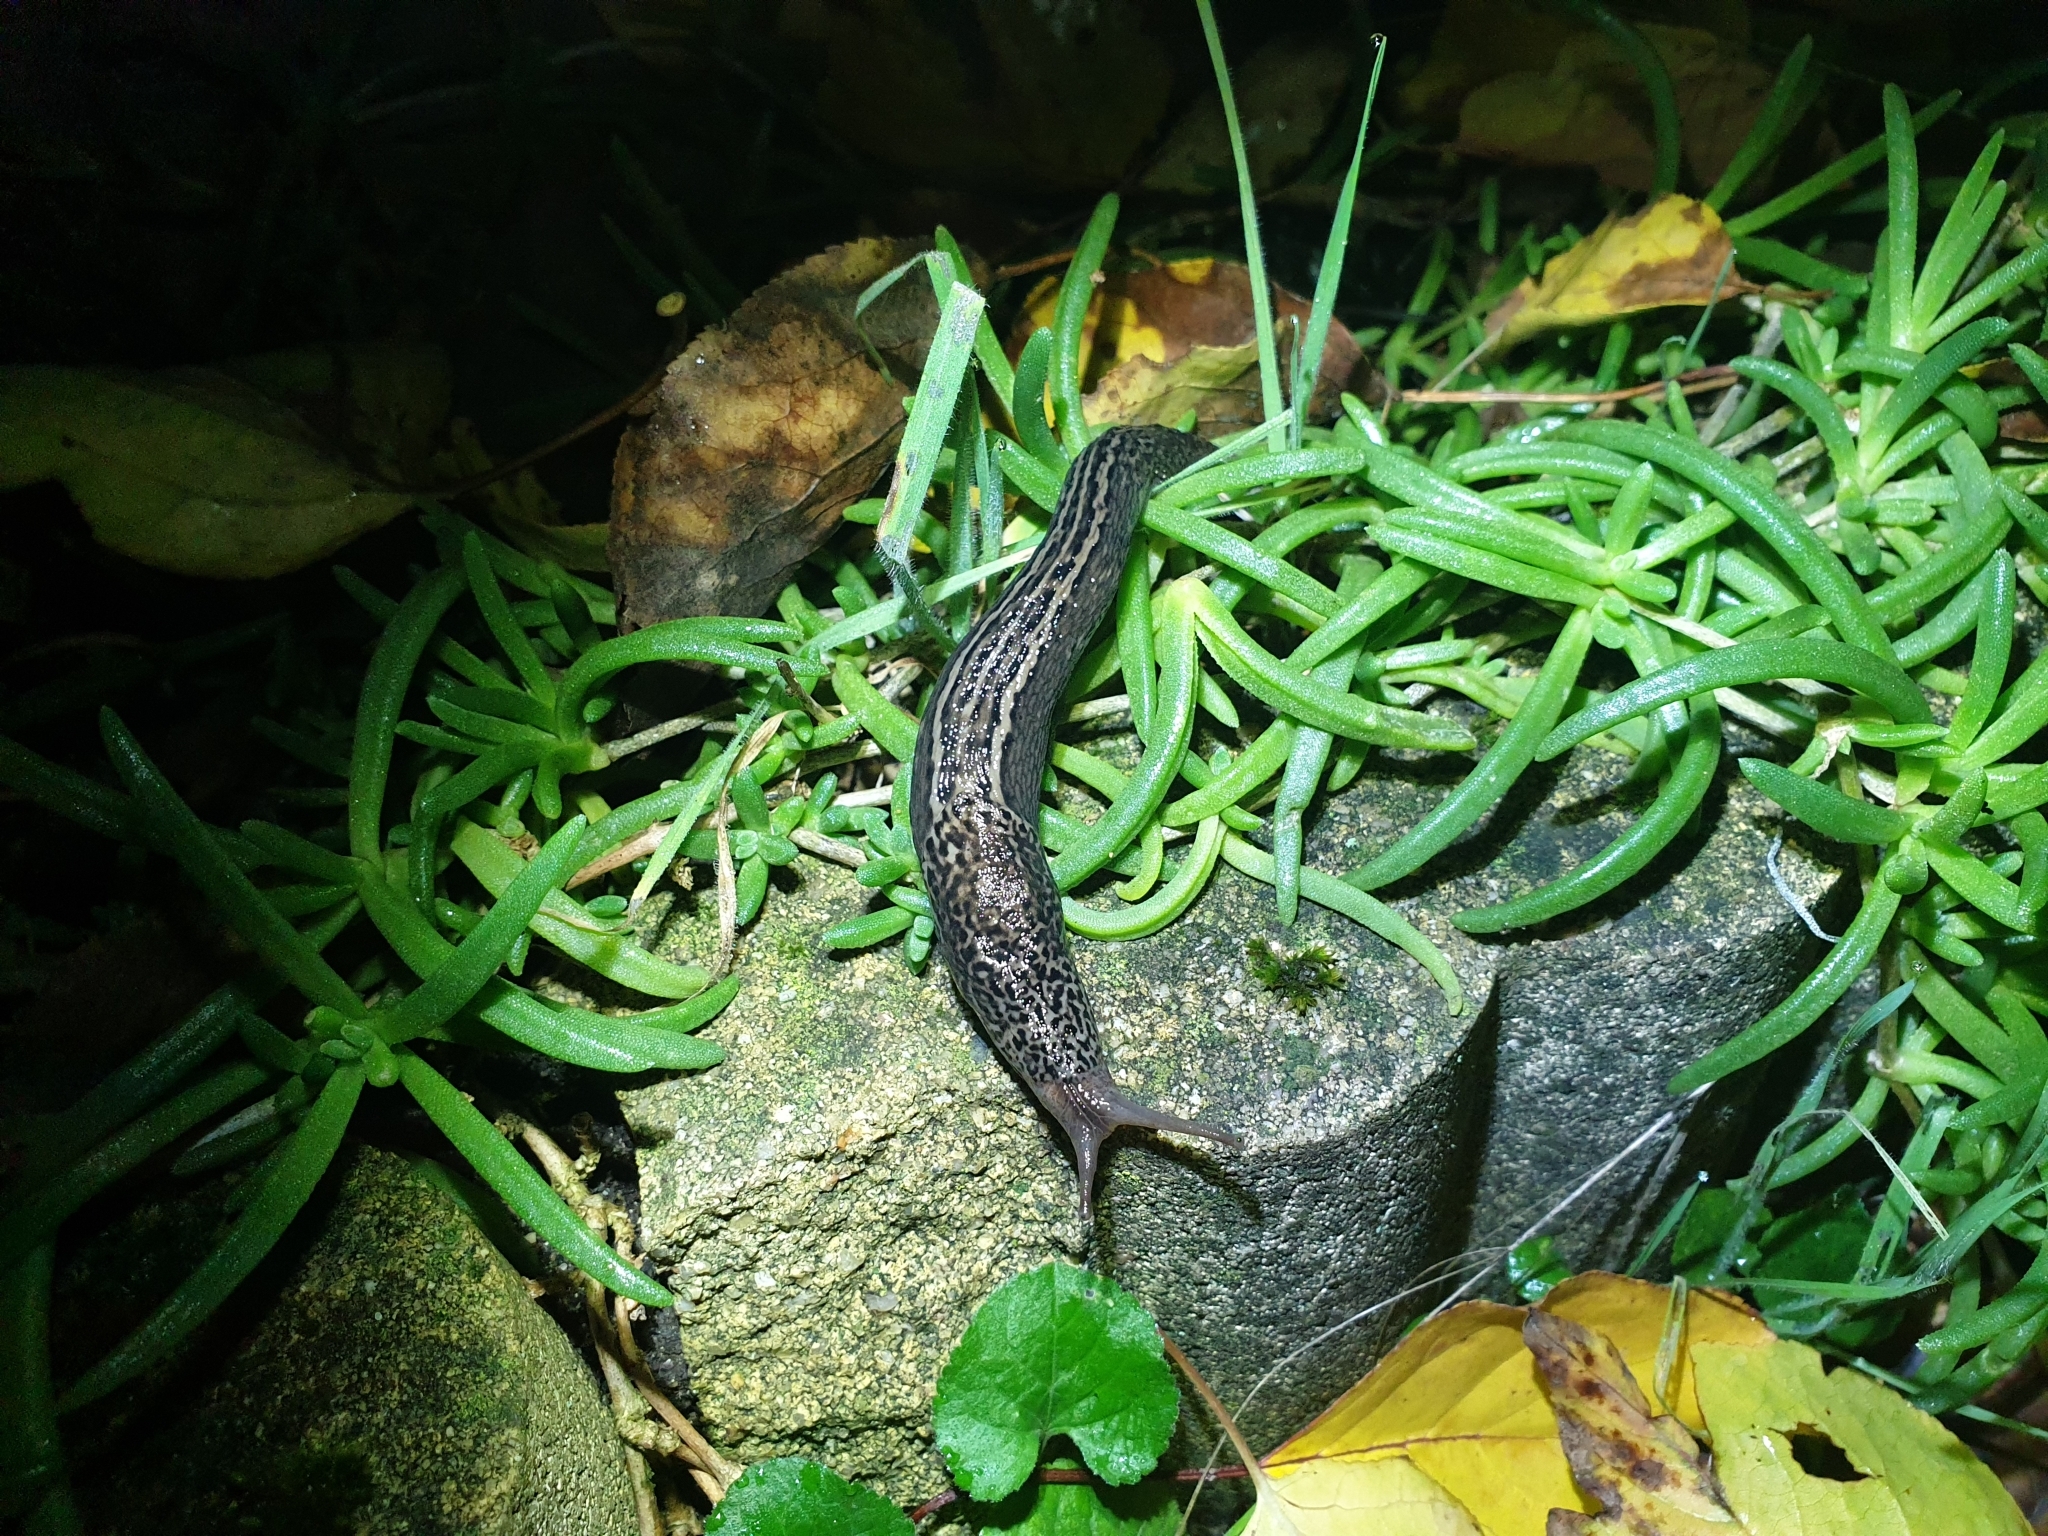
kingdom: Animalia
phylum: Mollusca
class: Gastropoda
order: Stylommatophora
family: Limacidae
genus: Limax
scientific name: Limax maximus
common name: Great grey slug
